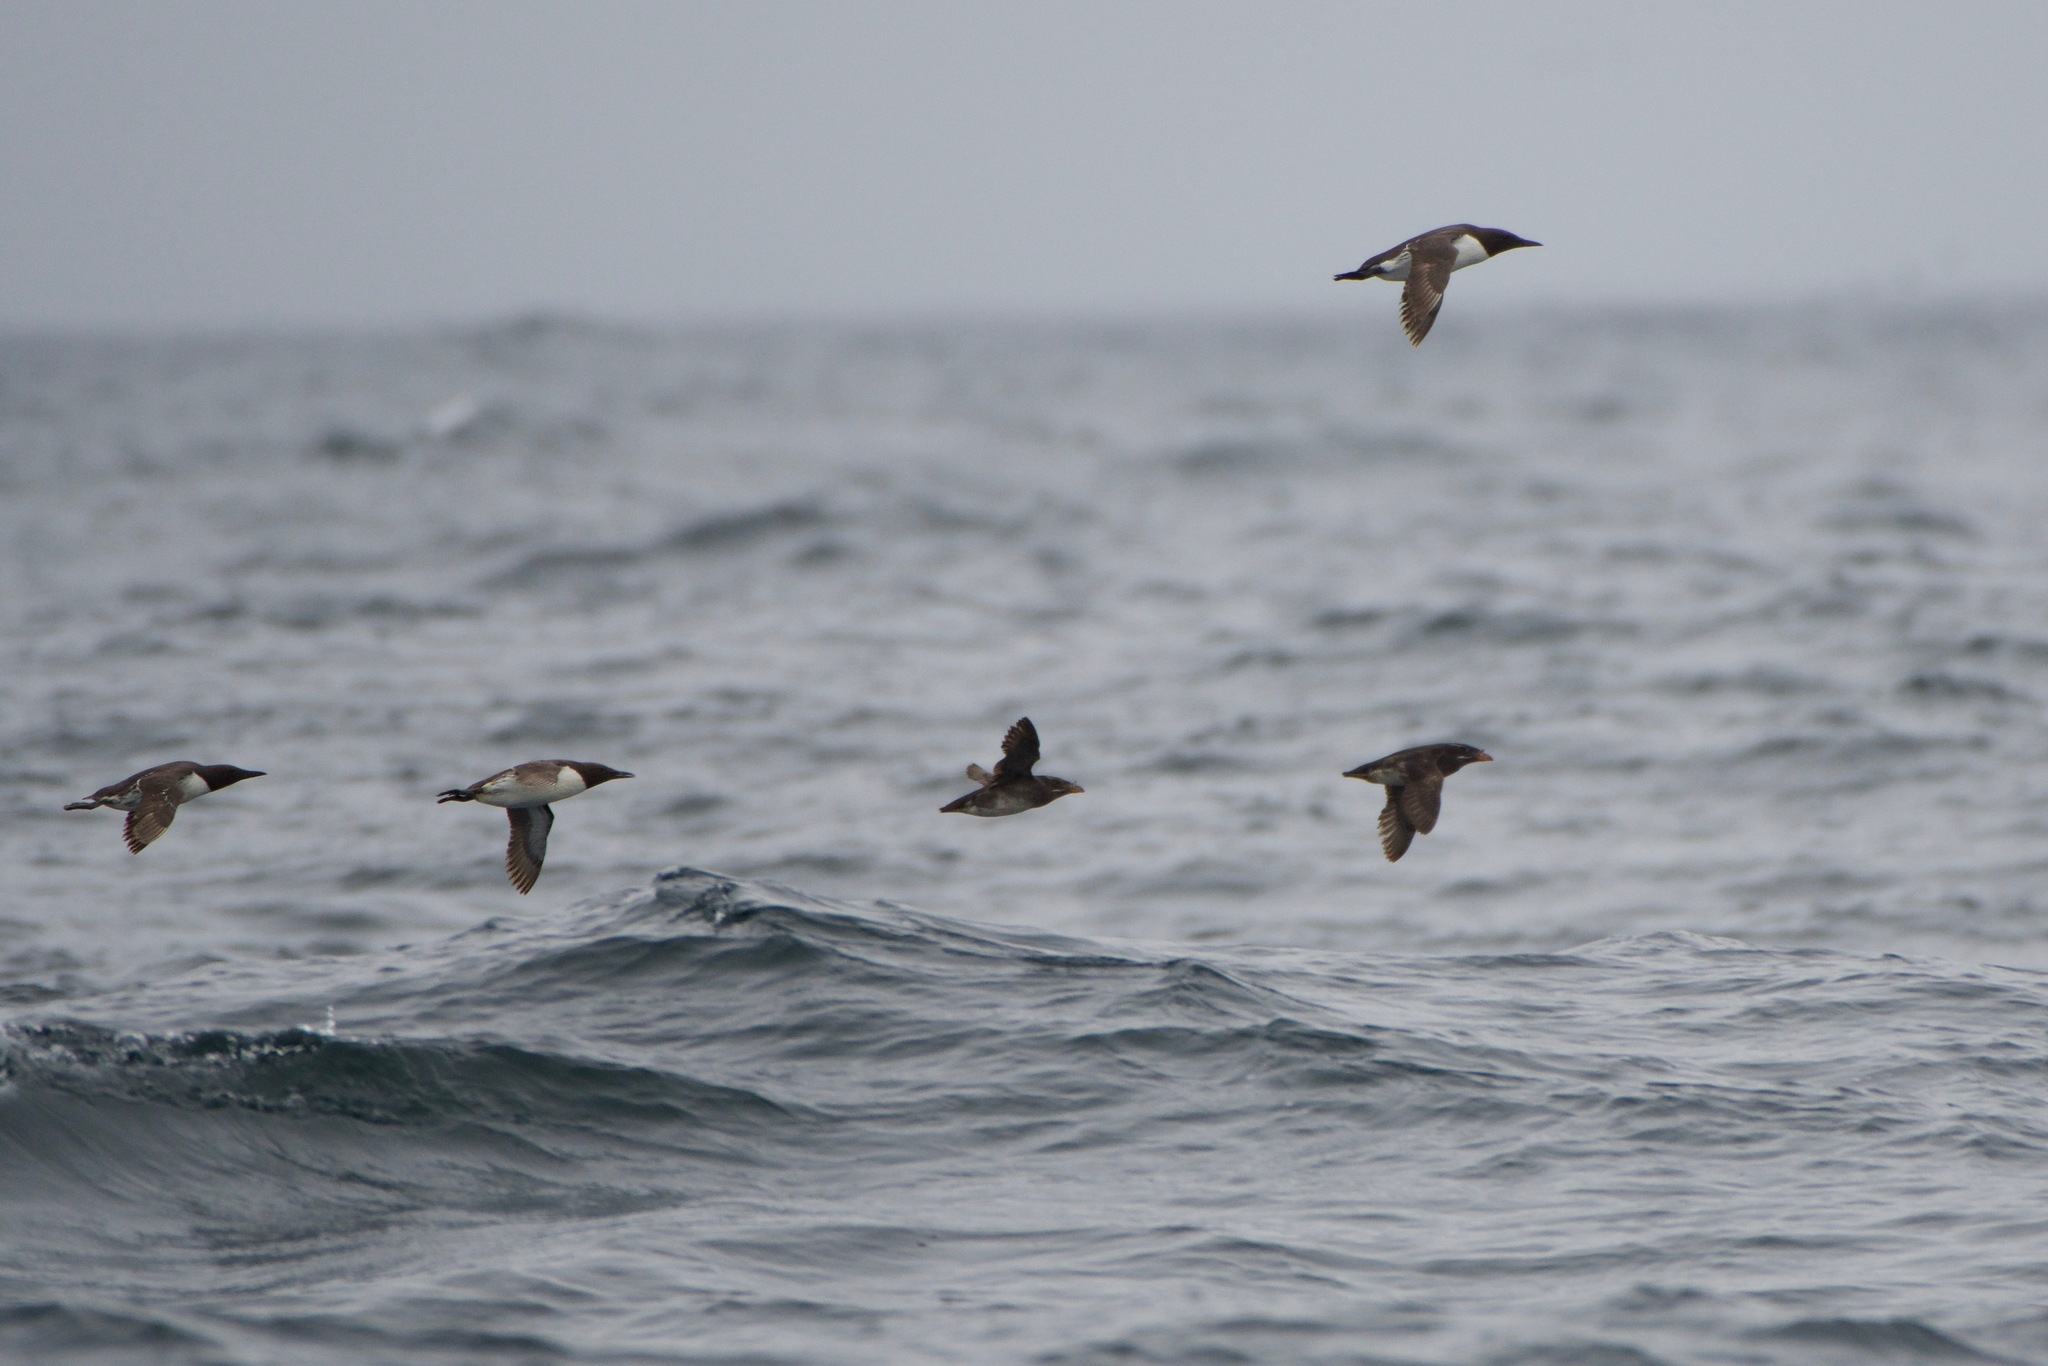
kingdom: Animalia
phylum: Chordata
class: Aves
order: Charadriiformes
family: Alcidae
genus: Cerorhinca
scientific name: Cerorhinca monocerata
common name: Rhinoceros auklet
